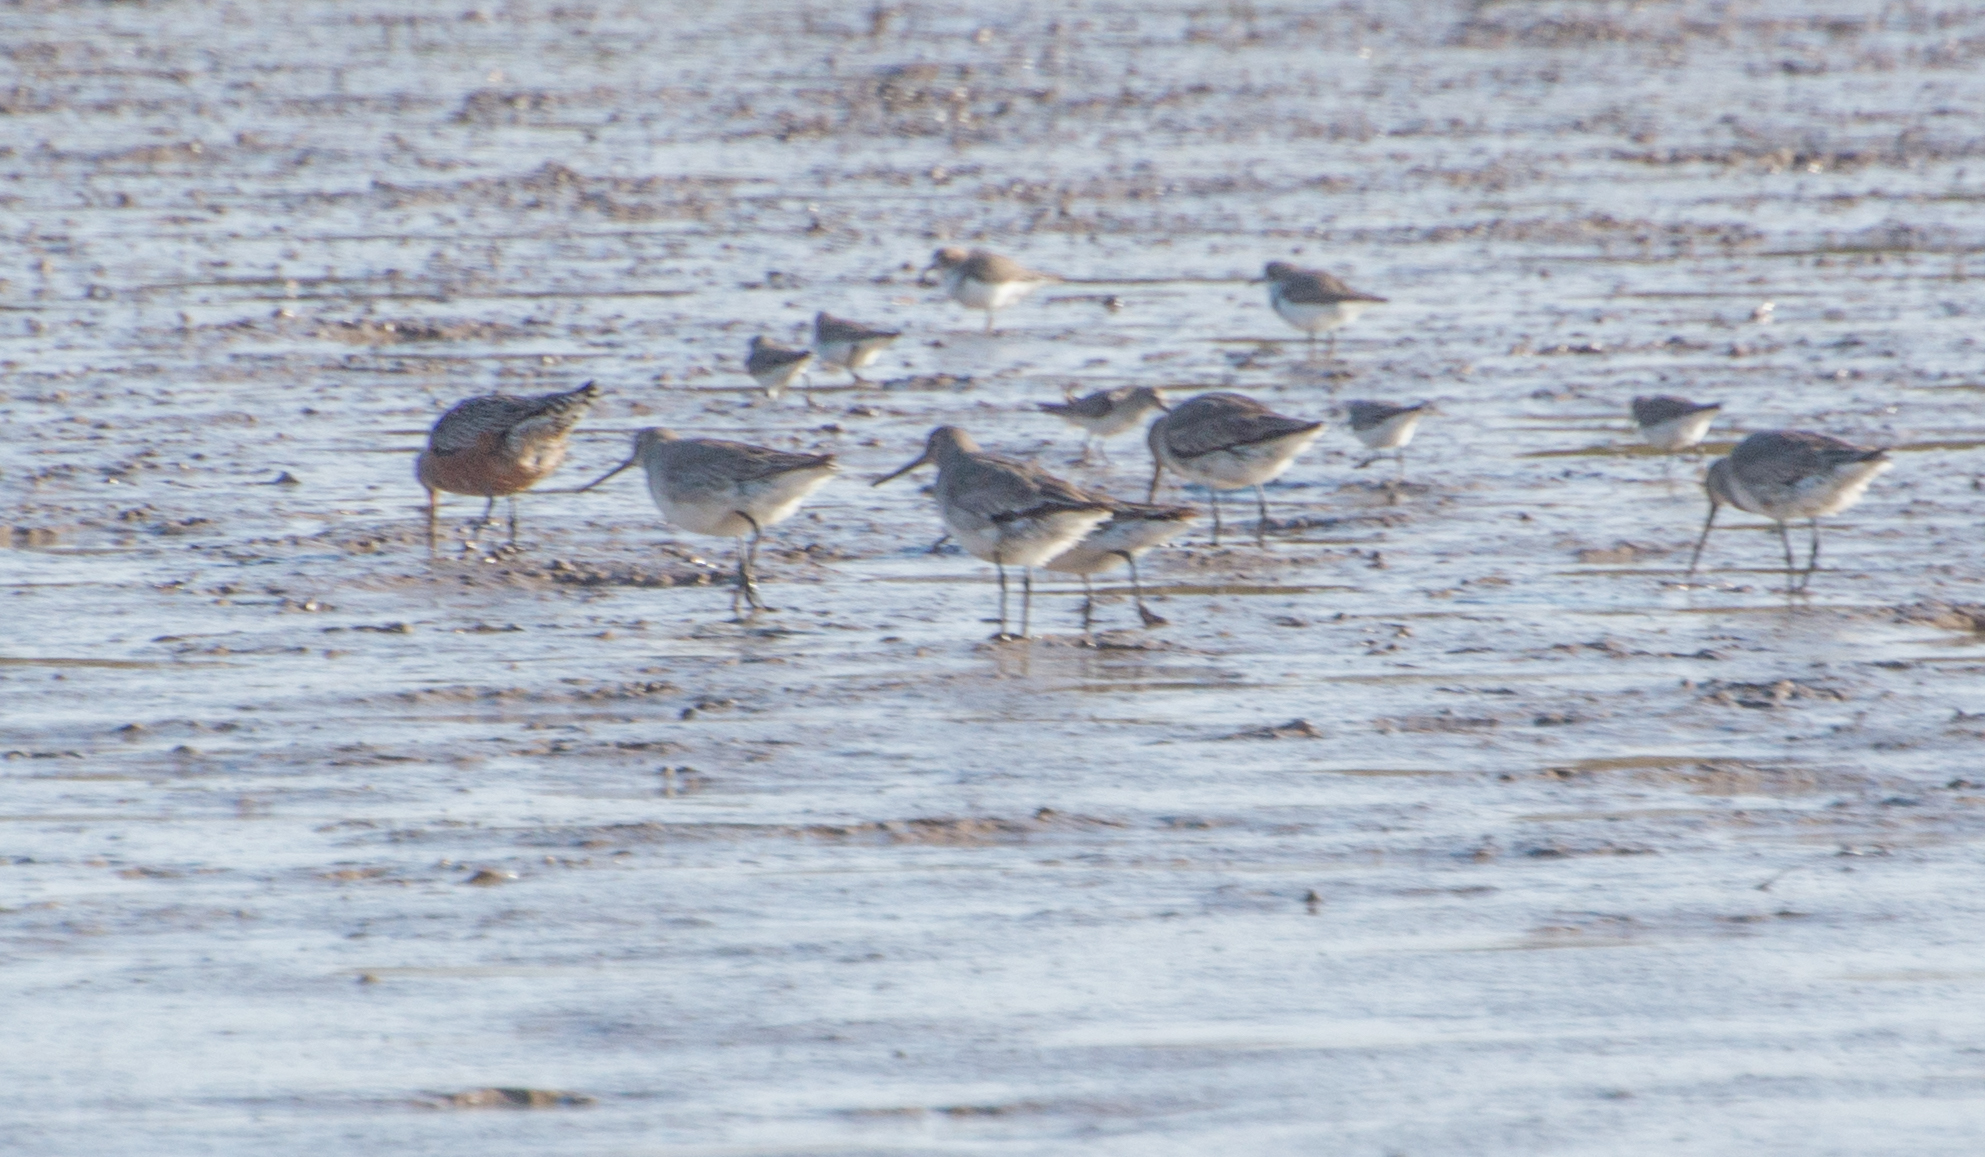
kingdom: Animalia
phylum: Chordata
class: Aves
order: Charadriiformes
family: Scolopacidae
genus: Limosa
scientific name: Limosa haemastica
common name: Hudsonian godwit
